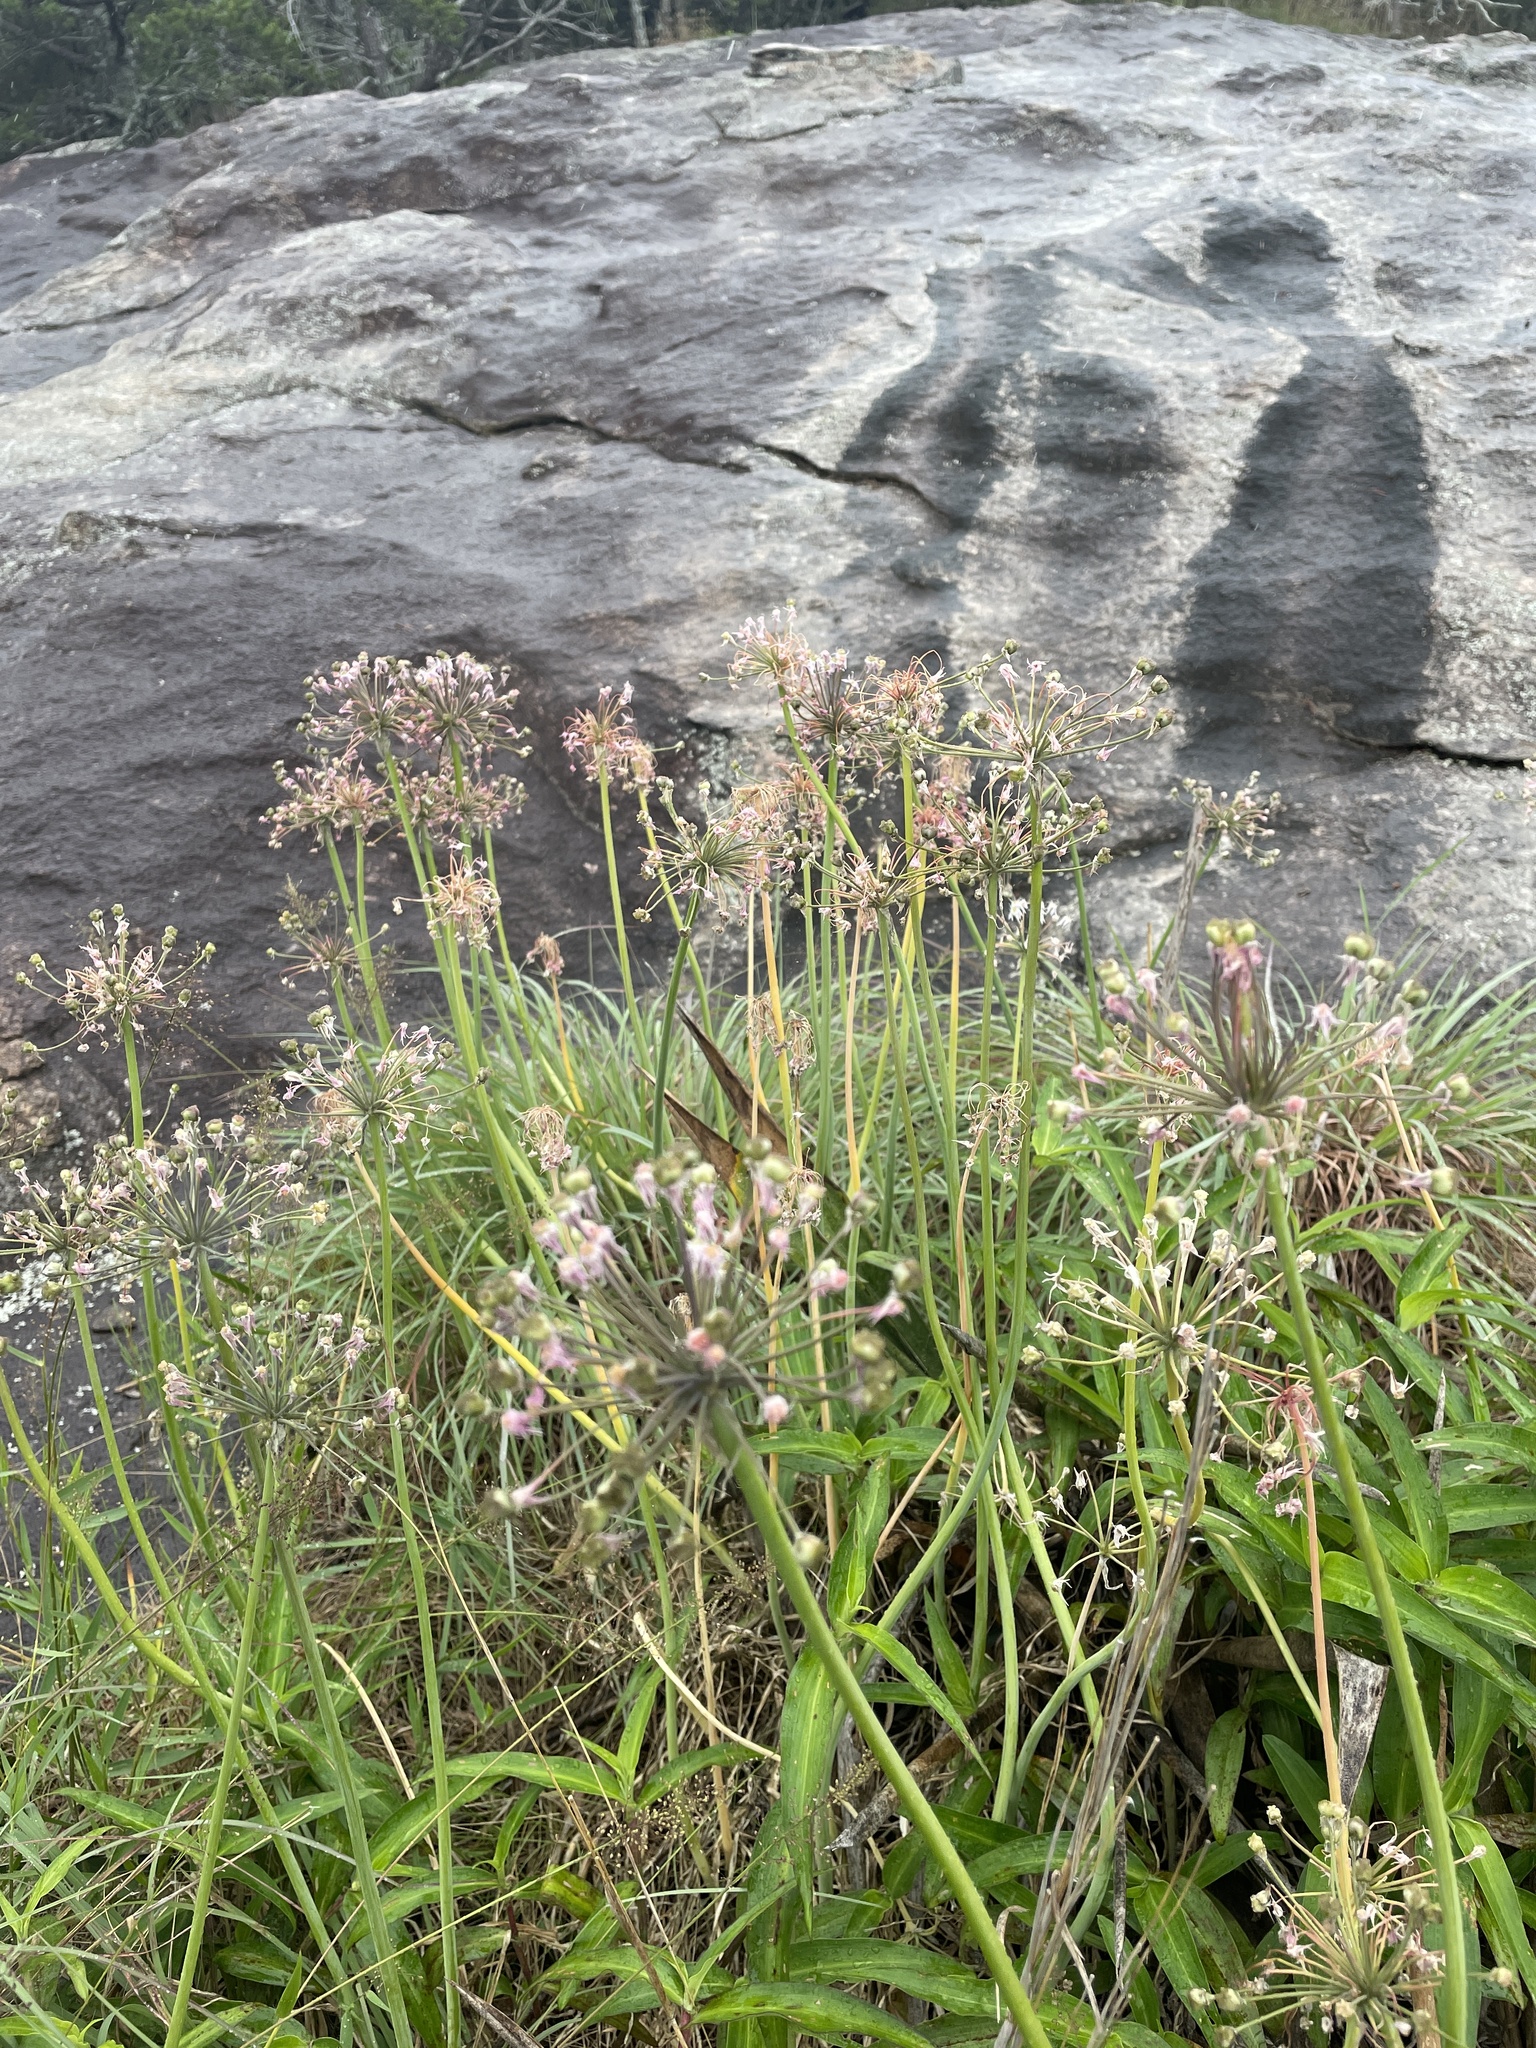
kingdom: Plantae
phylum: Tracheophyta
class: Liliopsida
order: Asparagales
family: Amaryllidaceae
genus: Allium
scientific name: Allium keeverae
